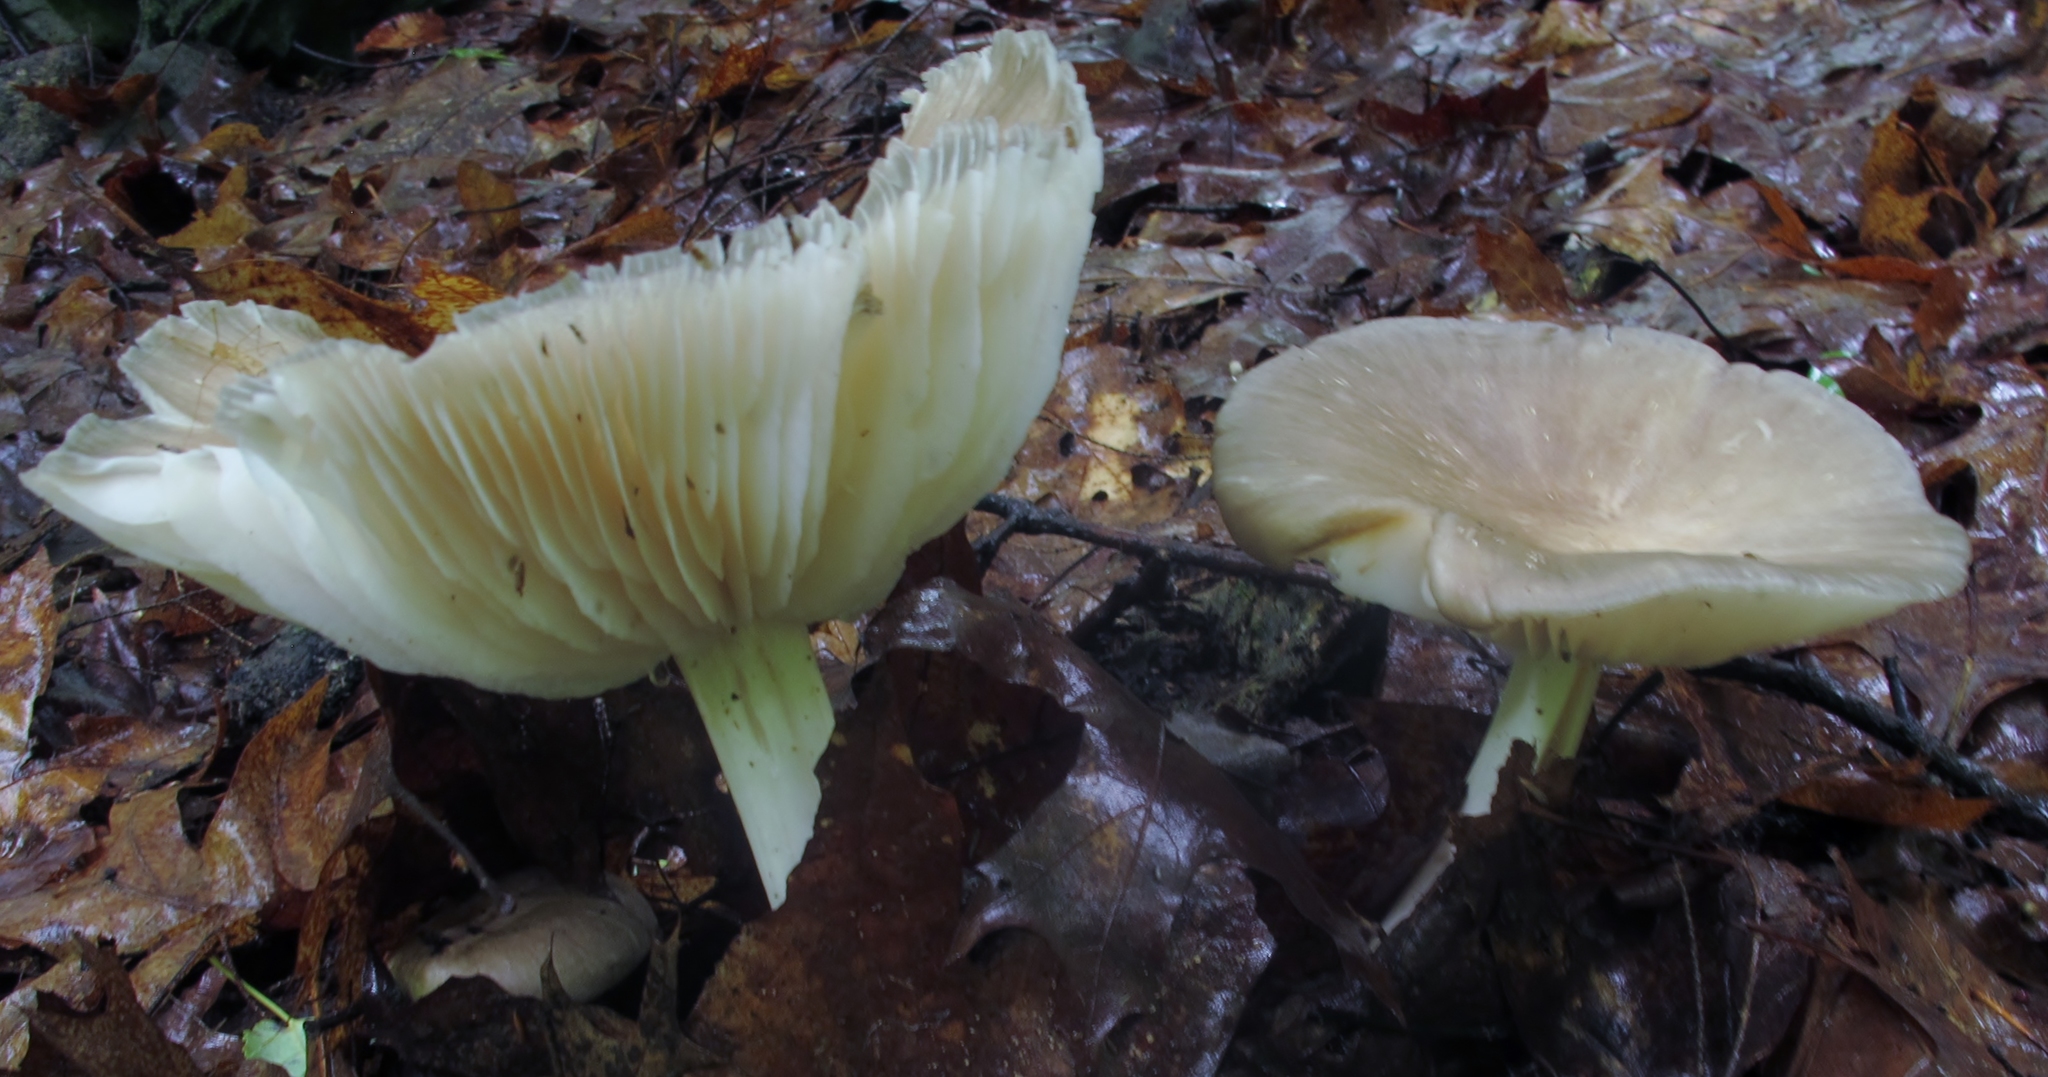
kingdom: Fungi
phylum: Basidiomycota
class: Agaricomycetes
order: Agaricales
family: Tricholomataceae
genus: Megacollybia
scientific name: Megacollybia rodmanii
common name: Eastern american platterful mushroom
